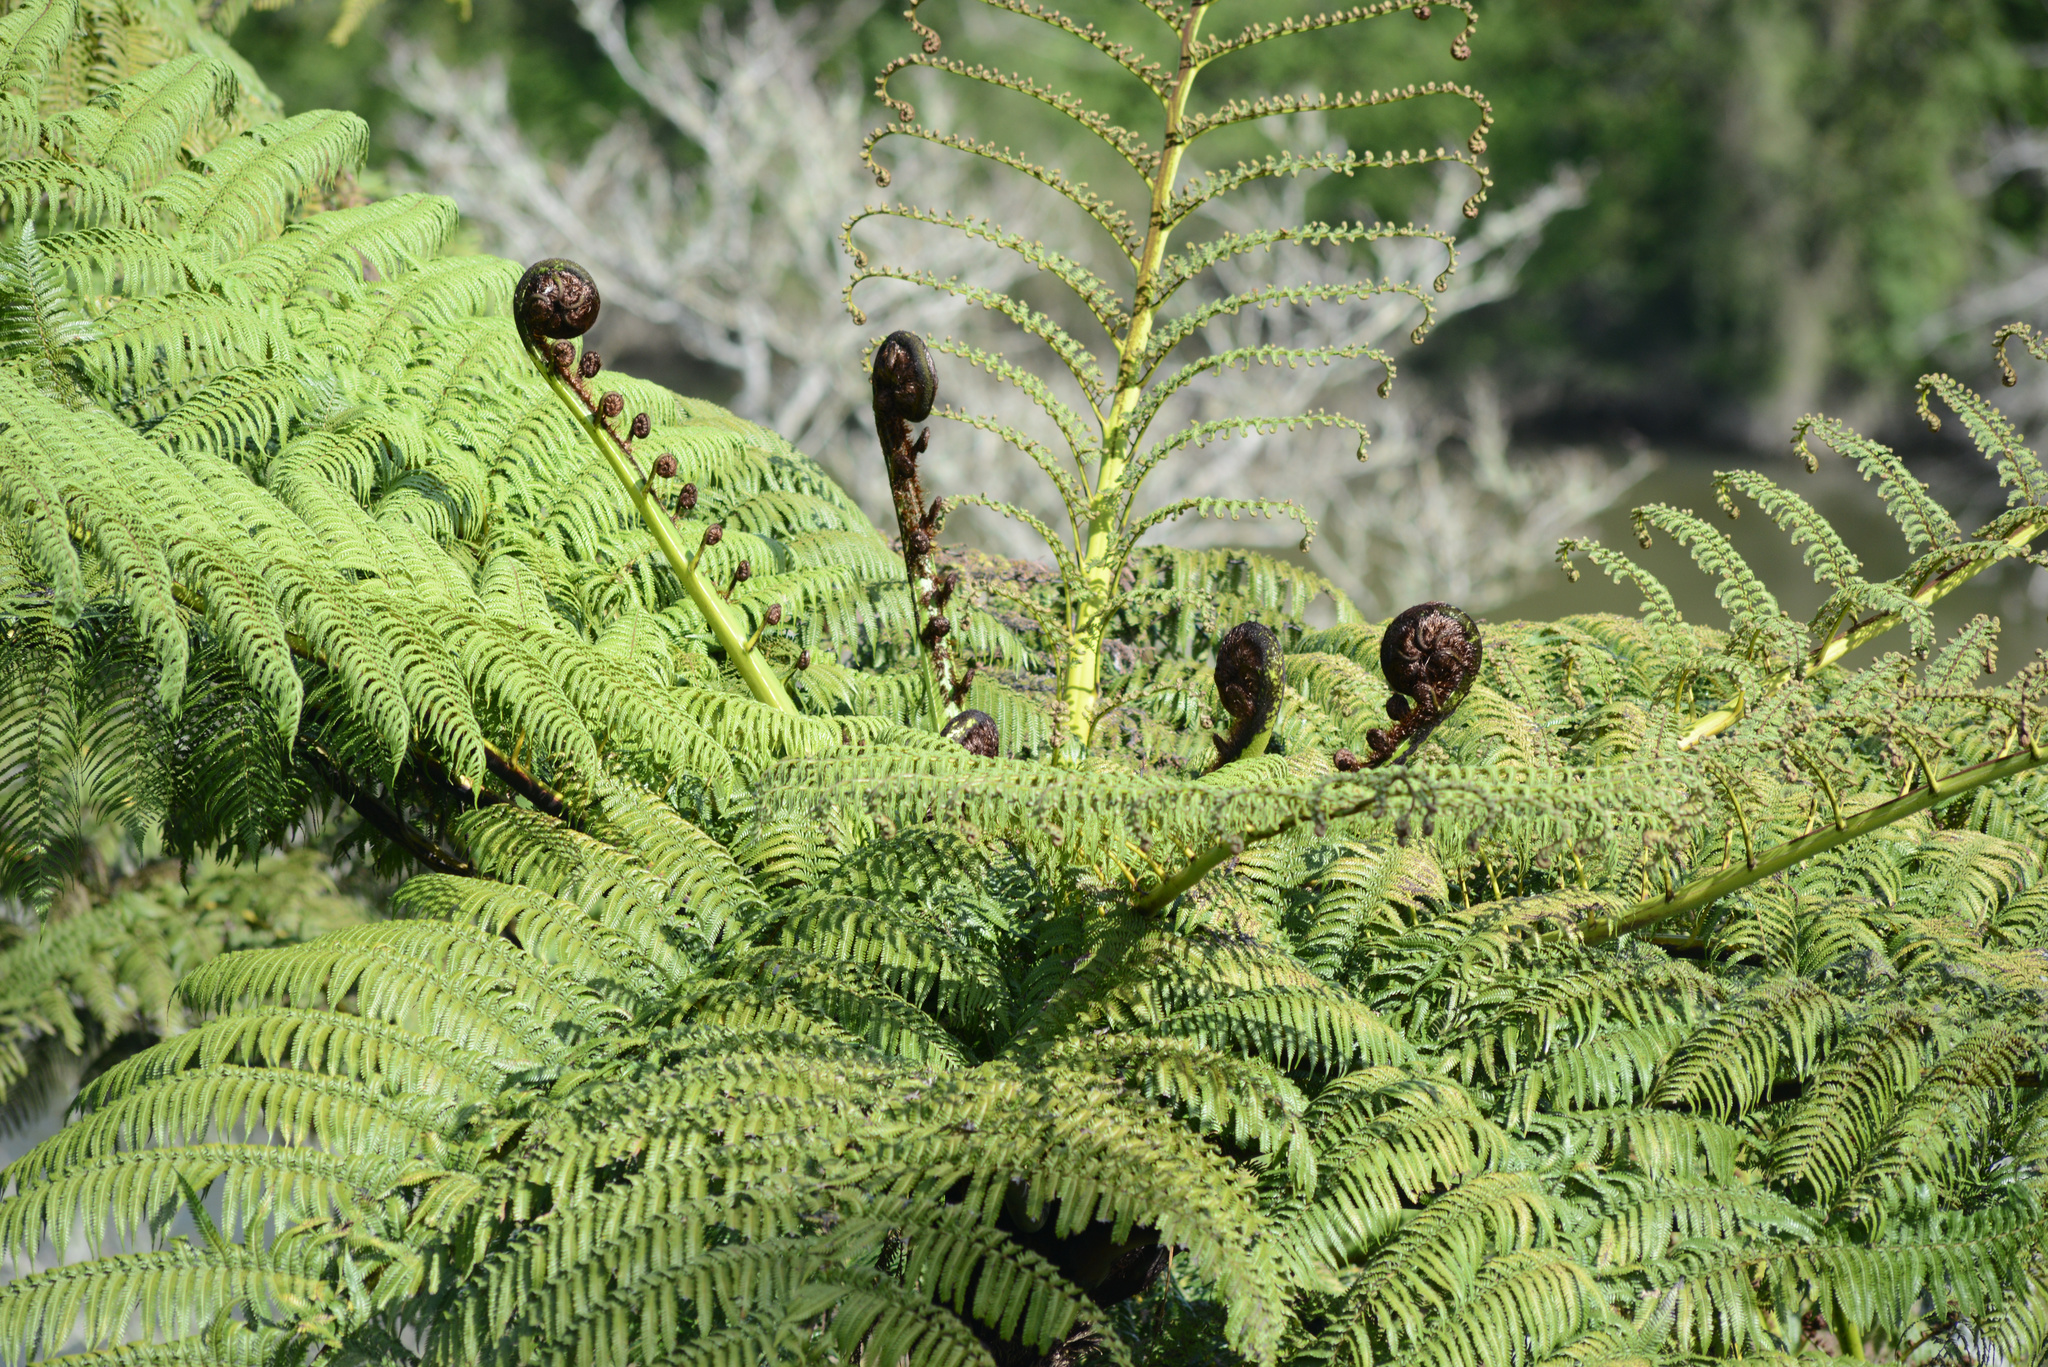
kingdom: Plantae
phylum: Tracheophyta
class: Polypodiopsida
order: Cyatheales
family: Cyatheaceae
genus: Sphaeropteris
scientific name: Sphaeropteris medullaris
